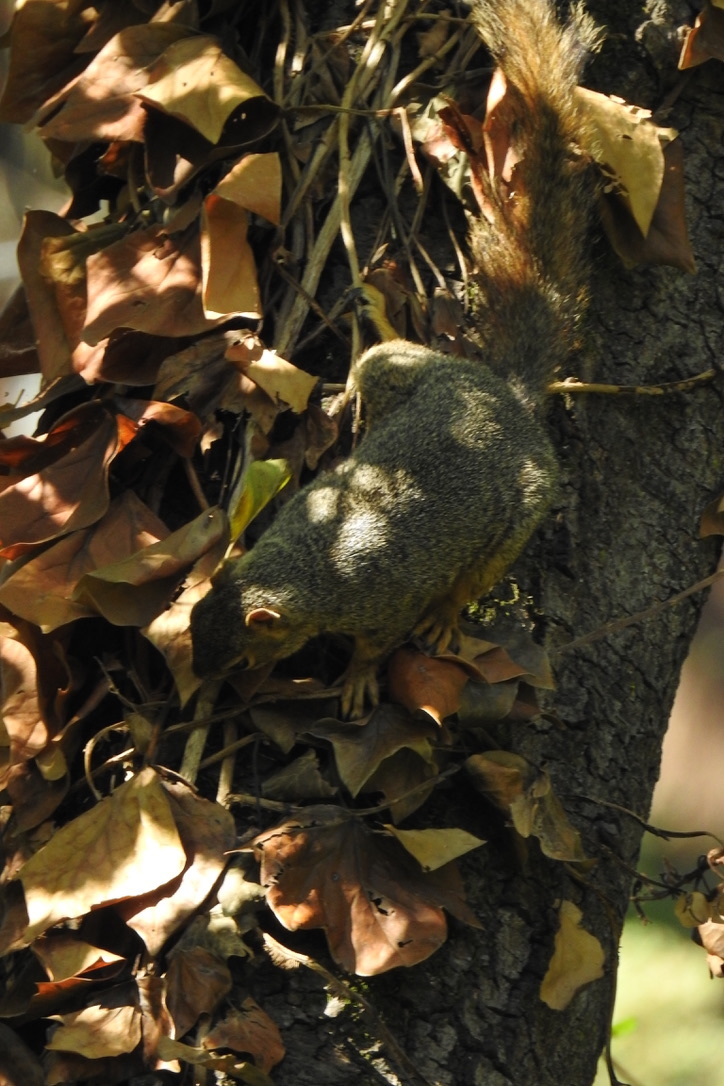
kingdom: Animalia
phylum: Chordata
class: Mammalia
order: Rodentia
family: Sciuridae
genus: Sciurus
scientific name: Sciurus niger
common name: Fox squirrel
